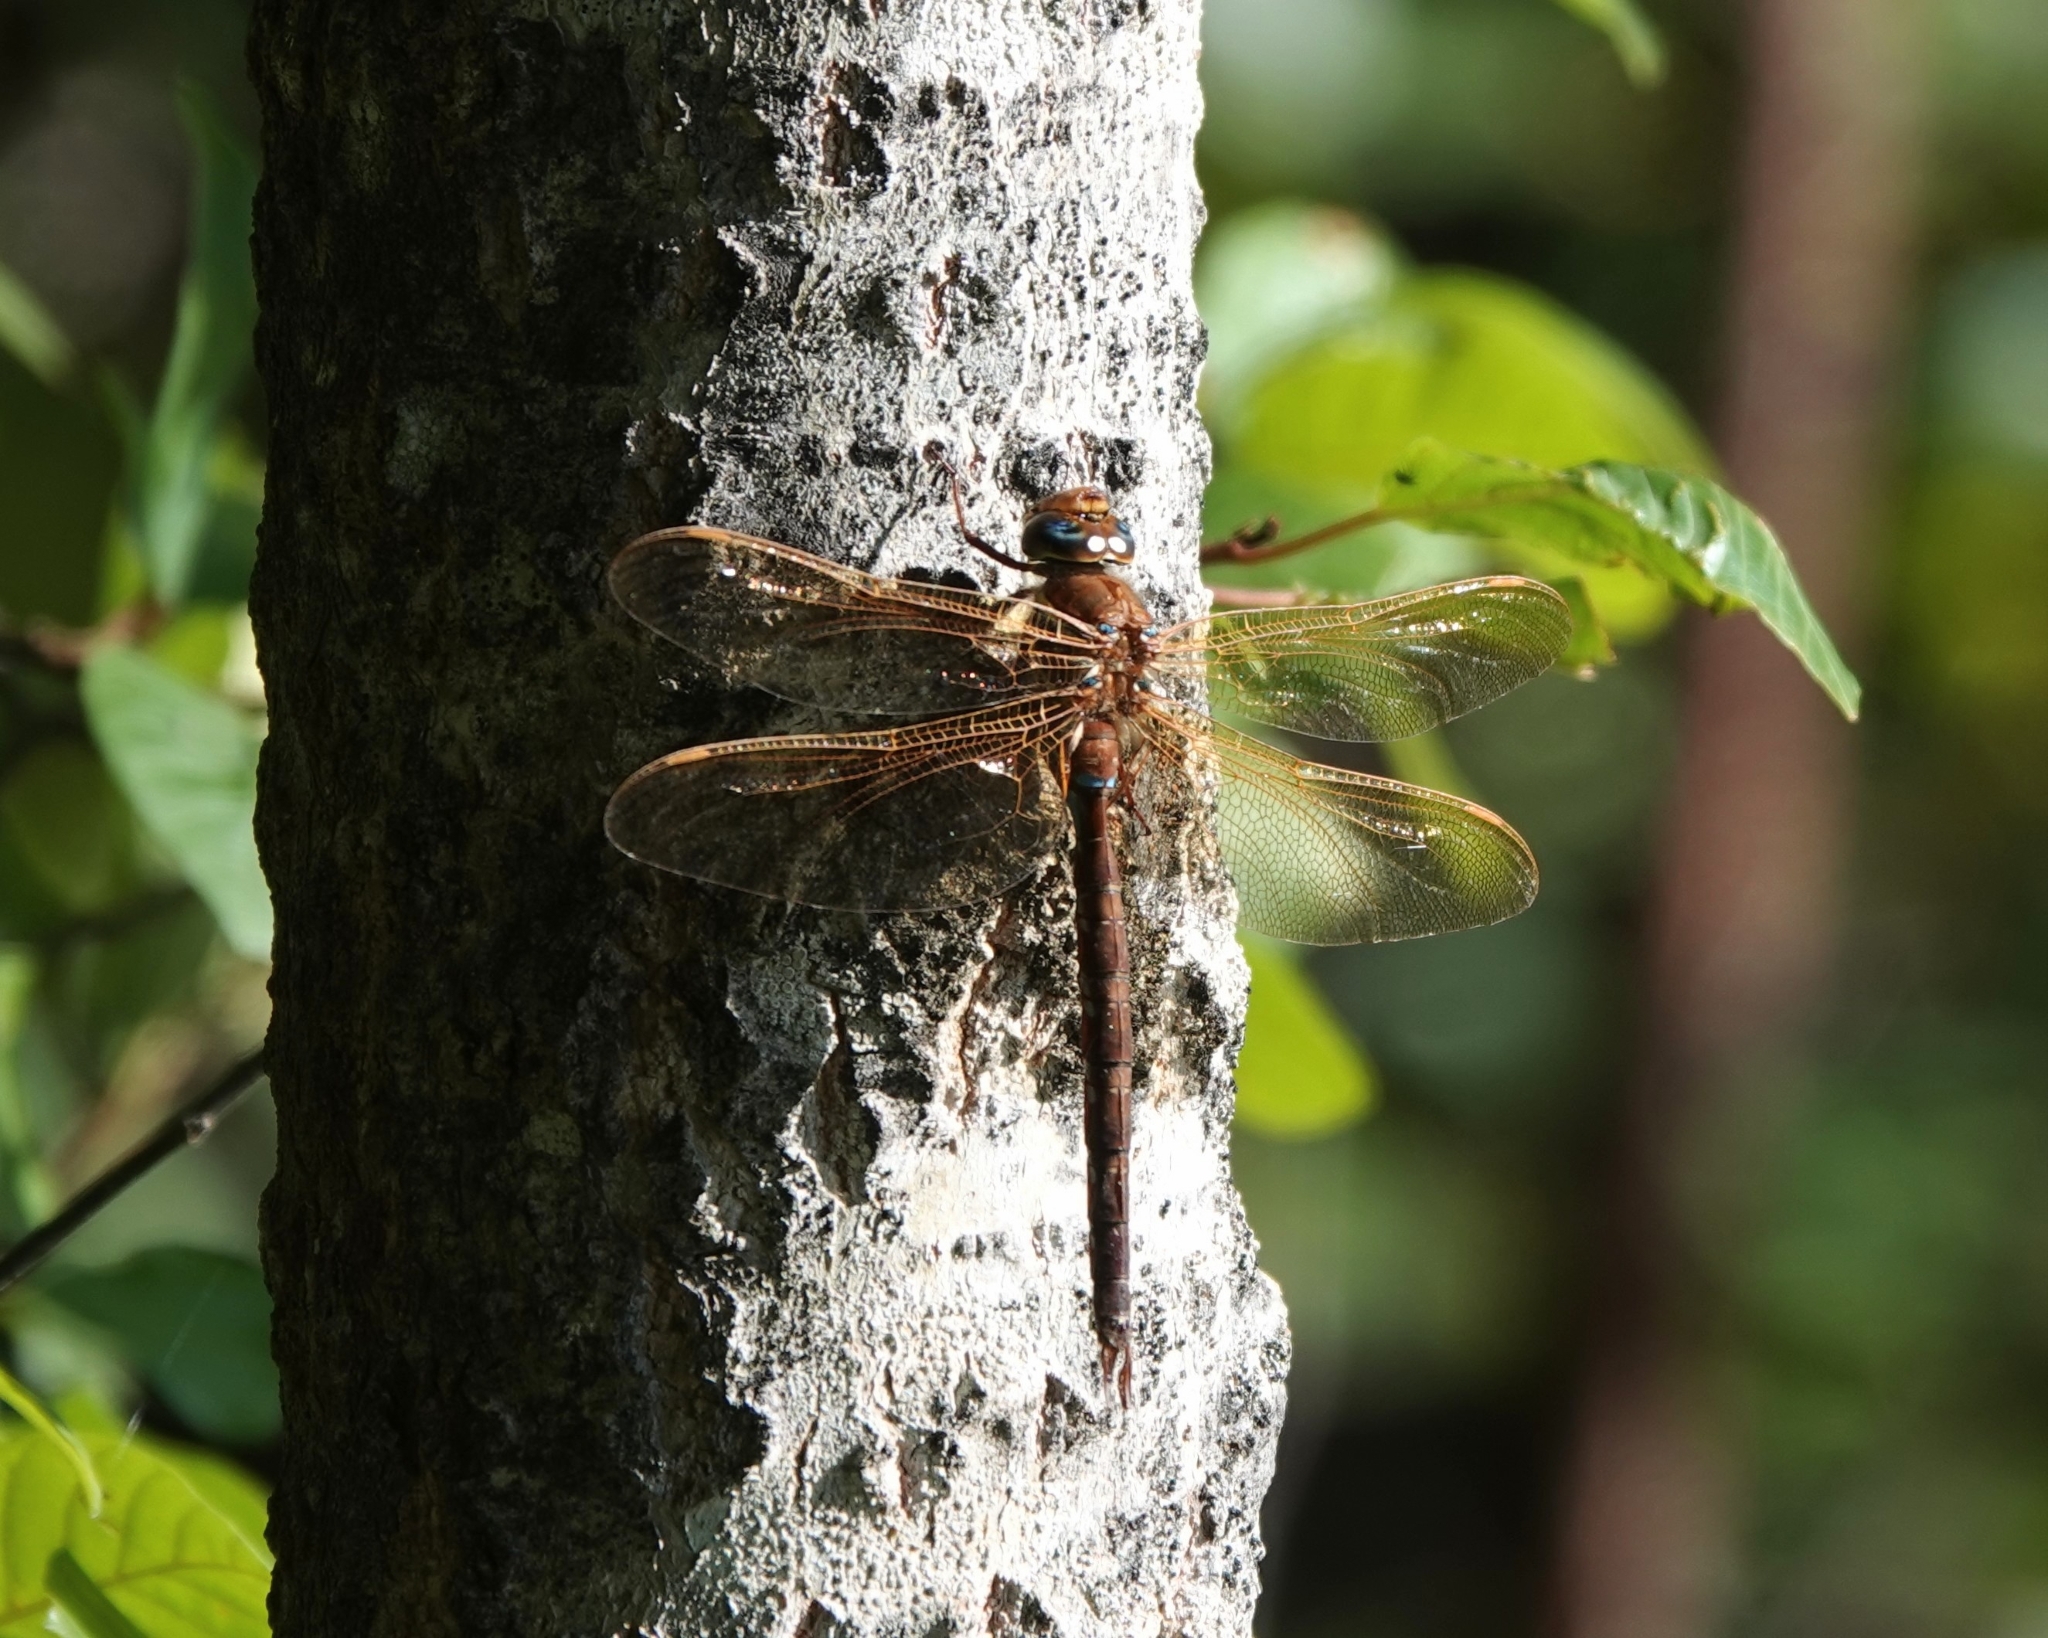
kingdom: Animalia
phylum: Arthropoda
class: Insecta
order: Odonata
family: Aeshnidae
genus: Aeshna
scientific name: Aeshna grandis
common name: Brown hawker
